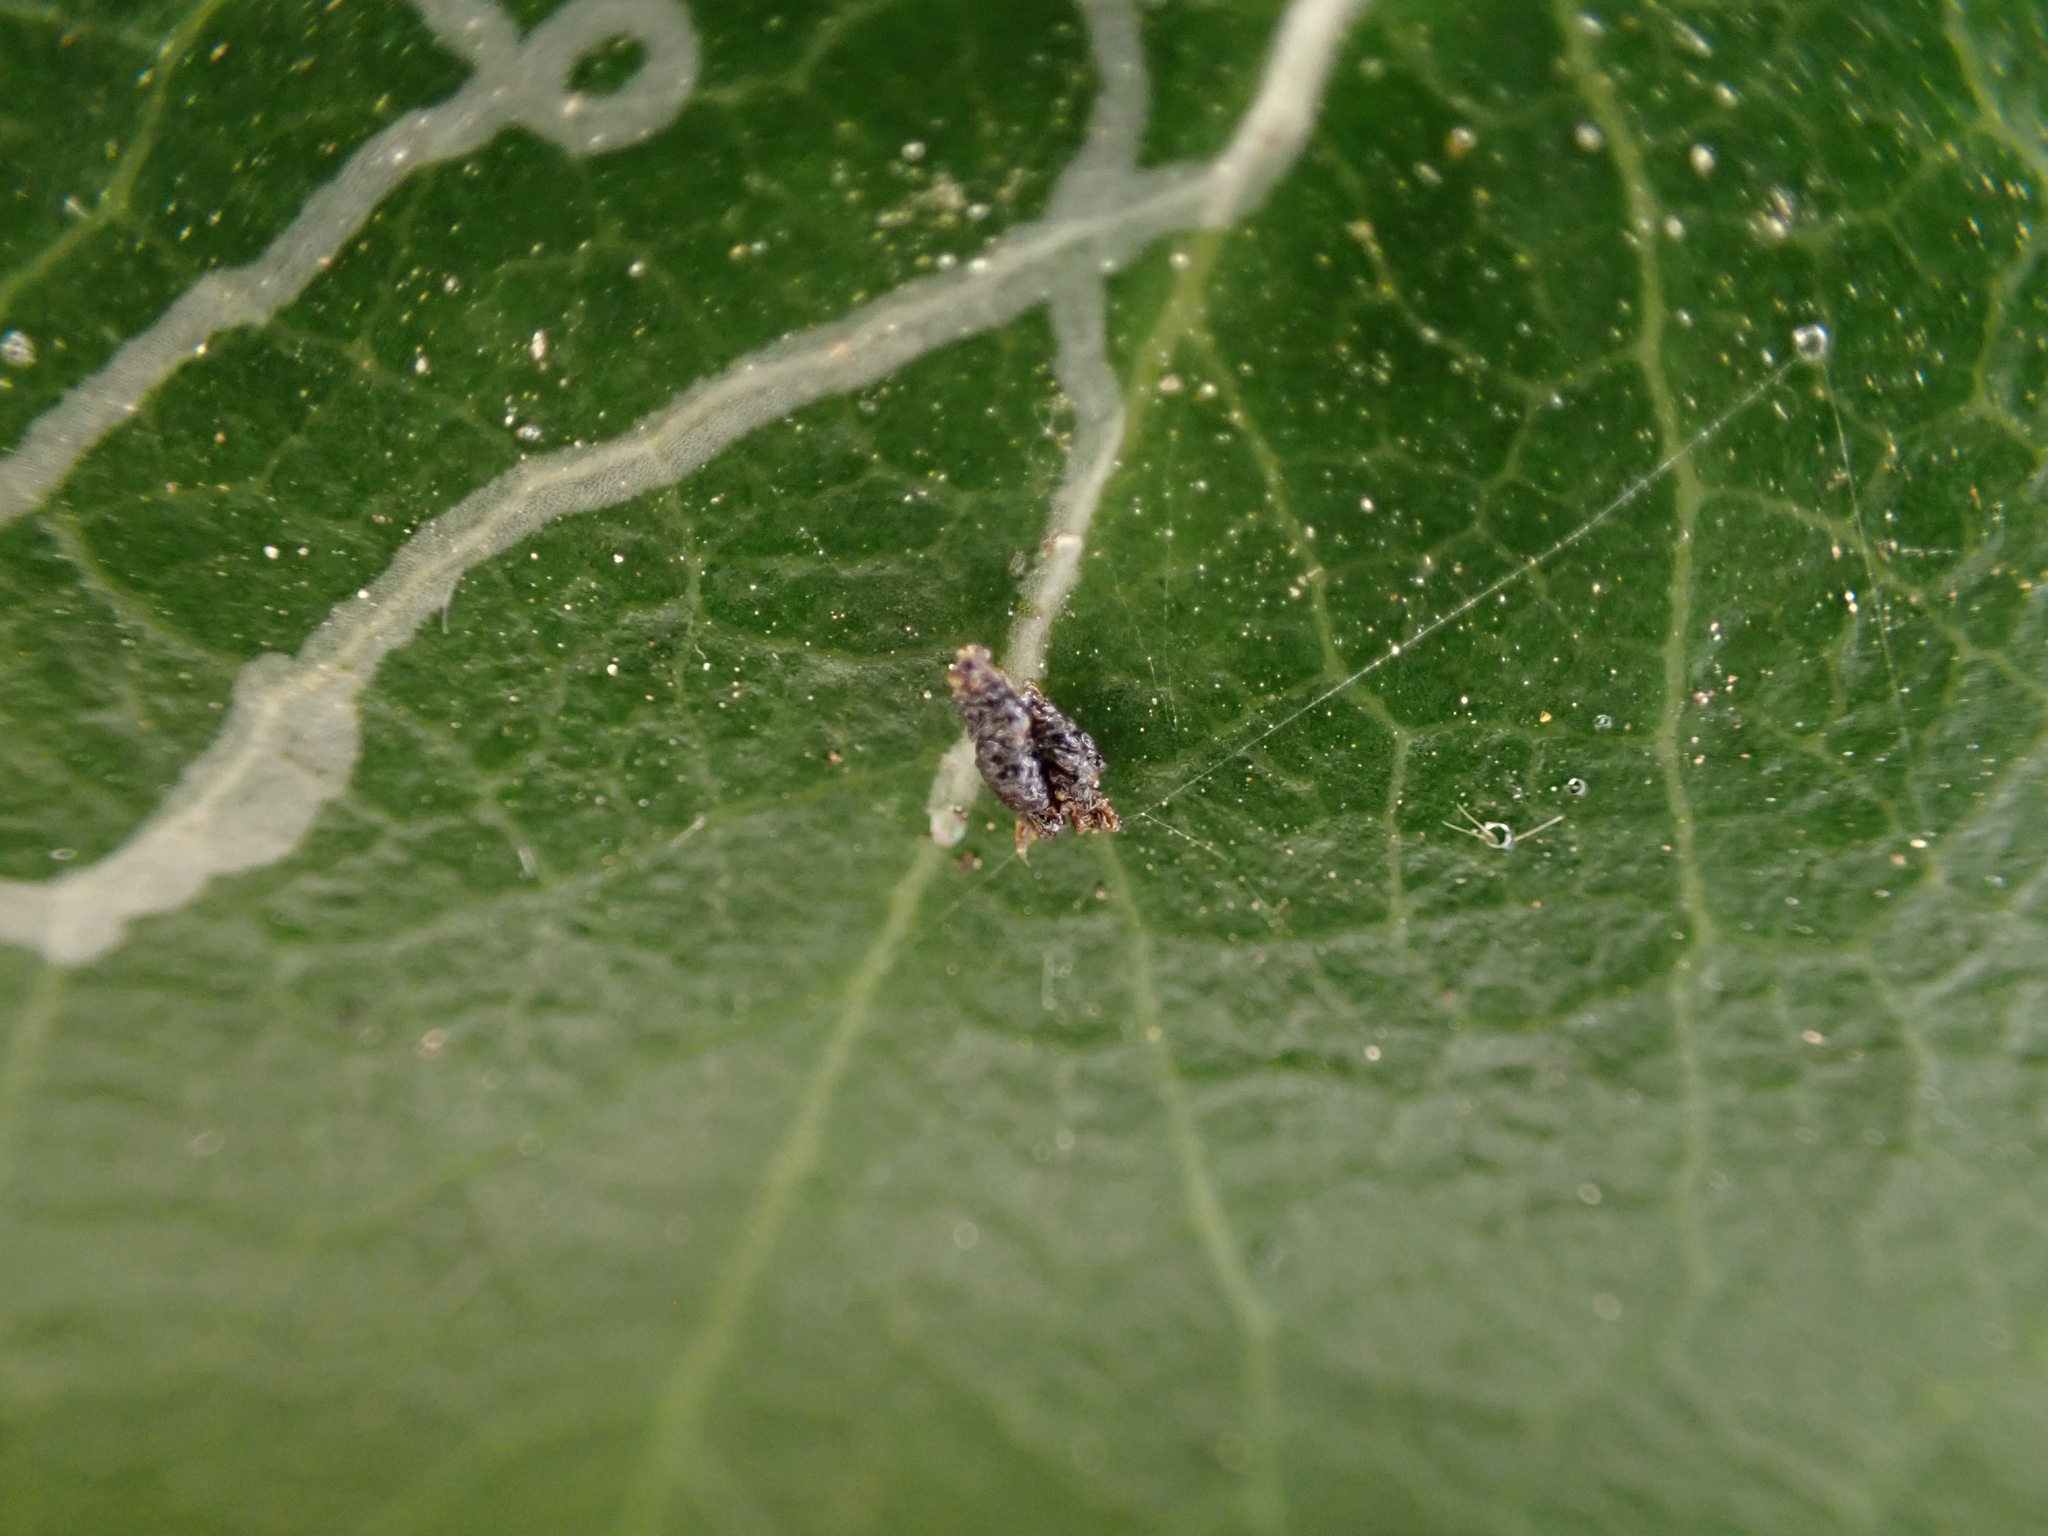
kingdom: Animalia
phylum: Arthropoda
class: Insecta
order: Lepidoptera
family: Gracillariidae
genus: Marmara
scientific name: Marmara arbutiella
